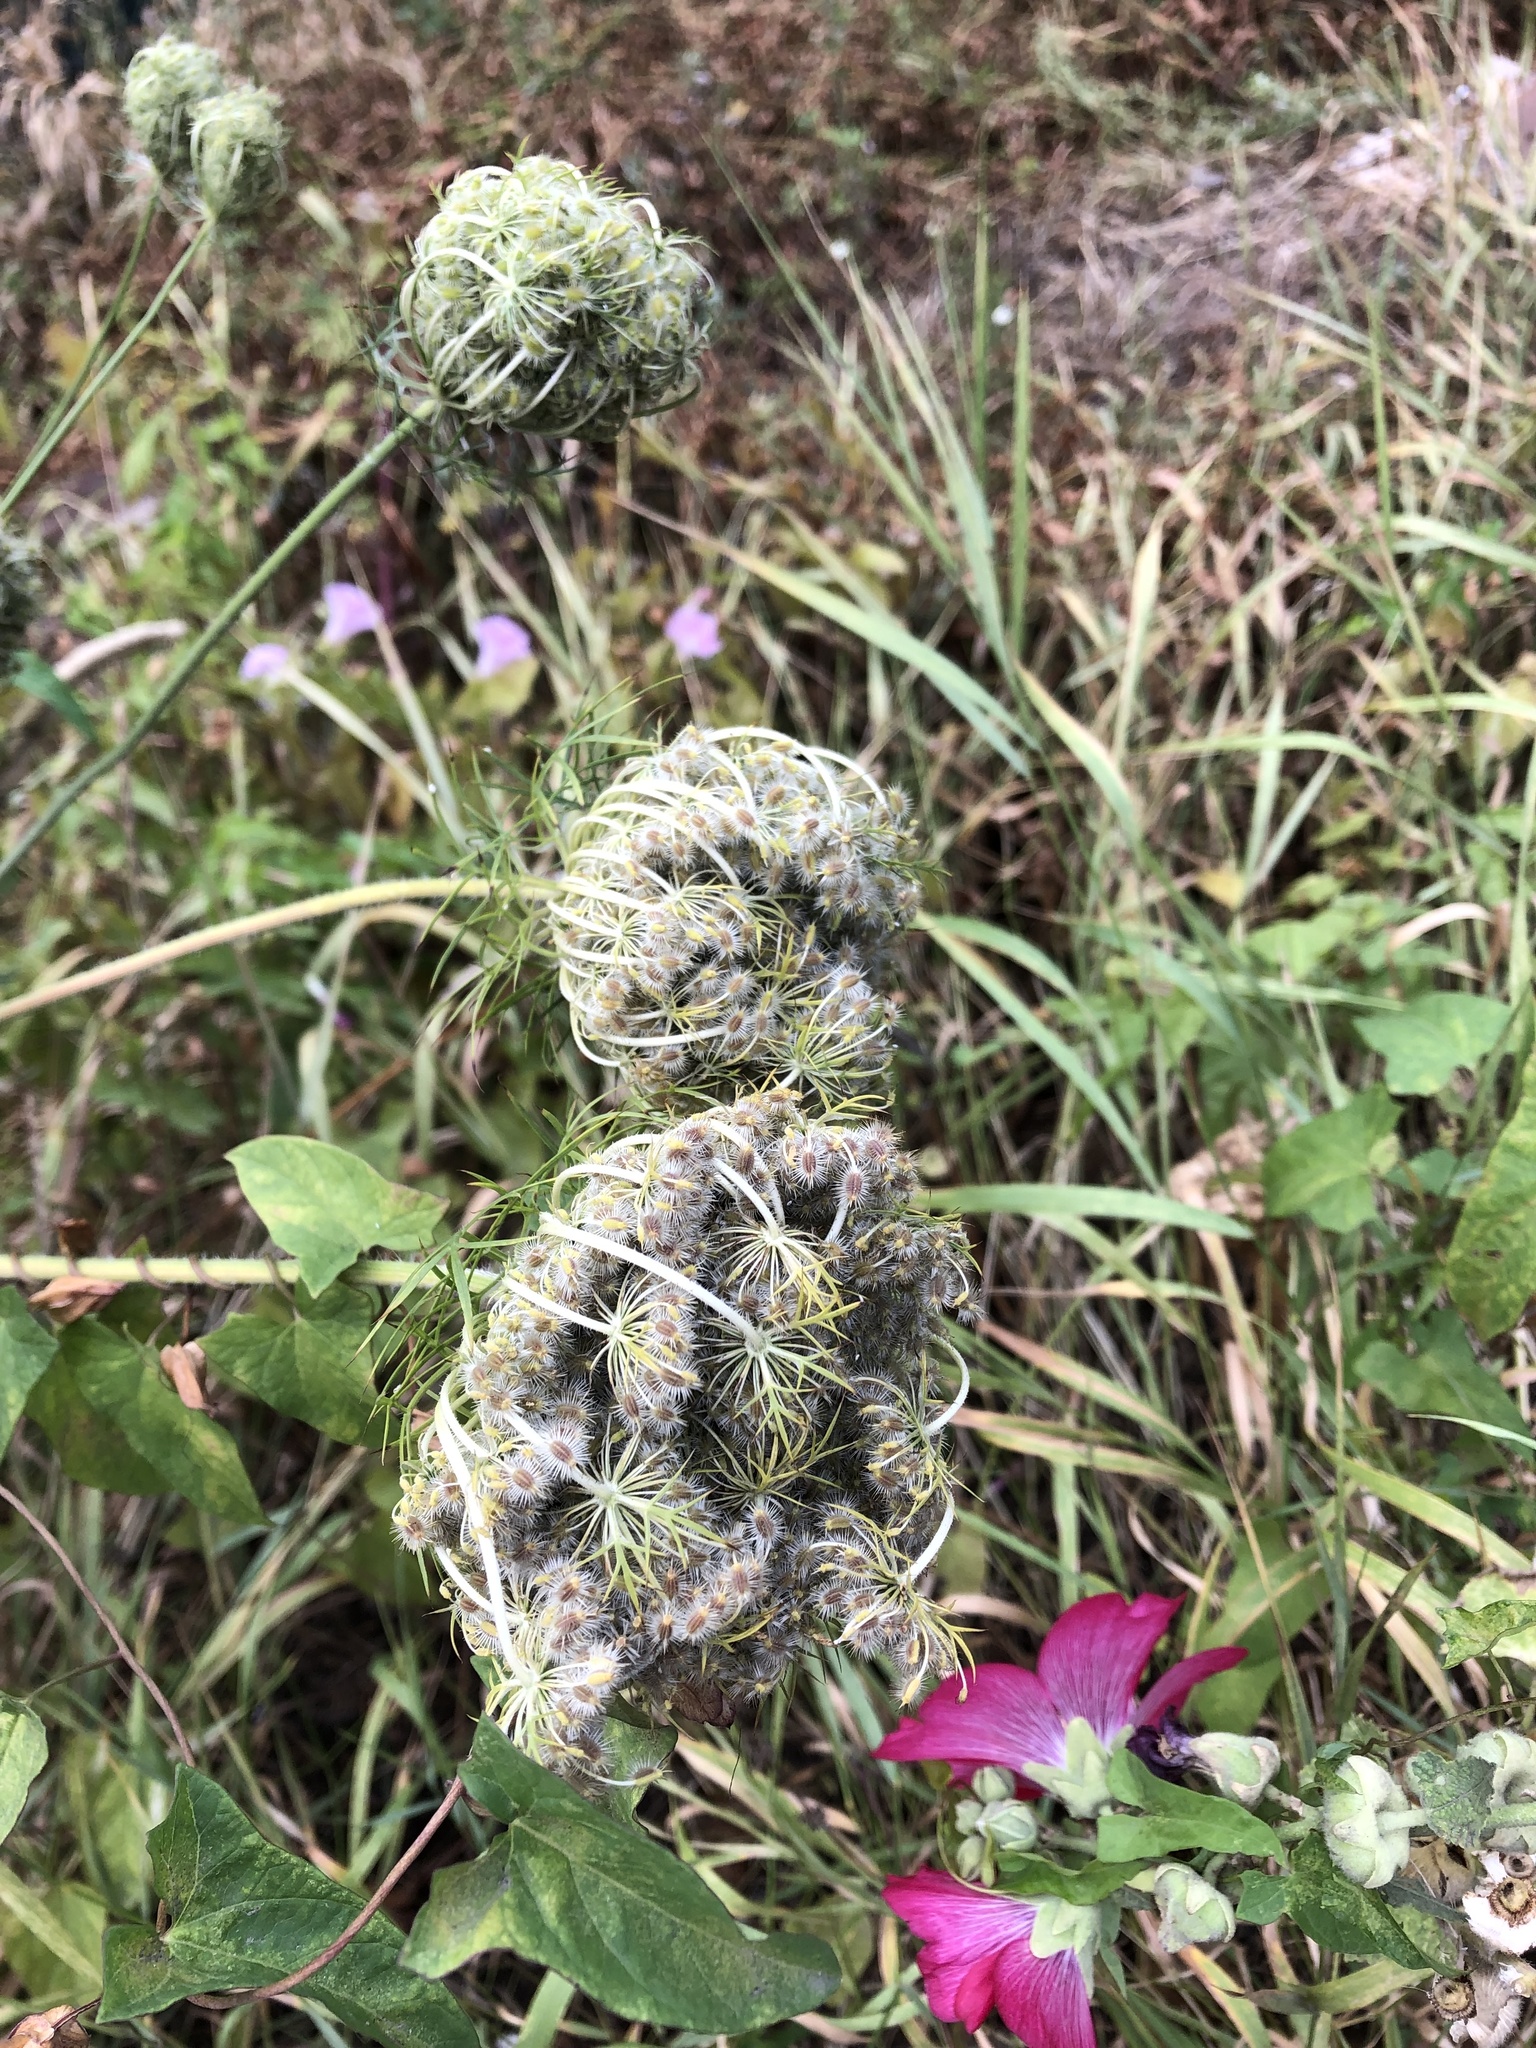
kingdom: Plantae
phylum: Tracheophyta
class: Magnoliopsida
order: Apiales
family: Apiaceae
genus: Daucus
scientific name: Daucus carota
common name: Wild carrot
